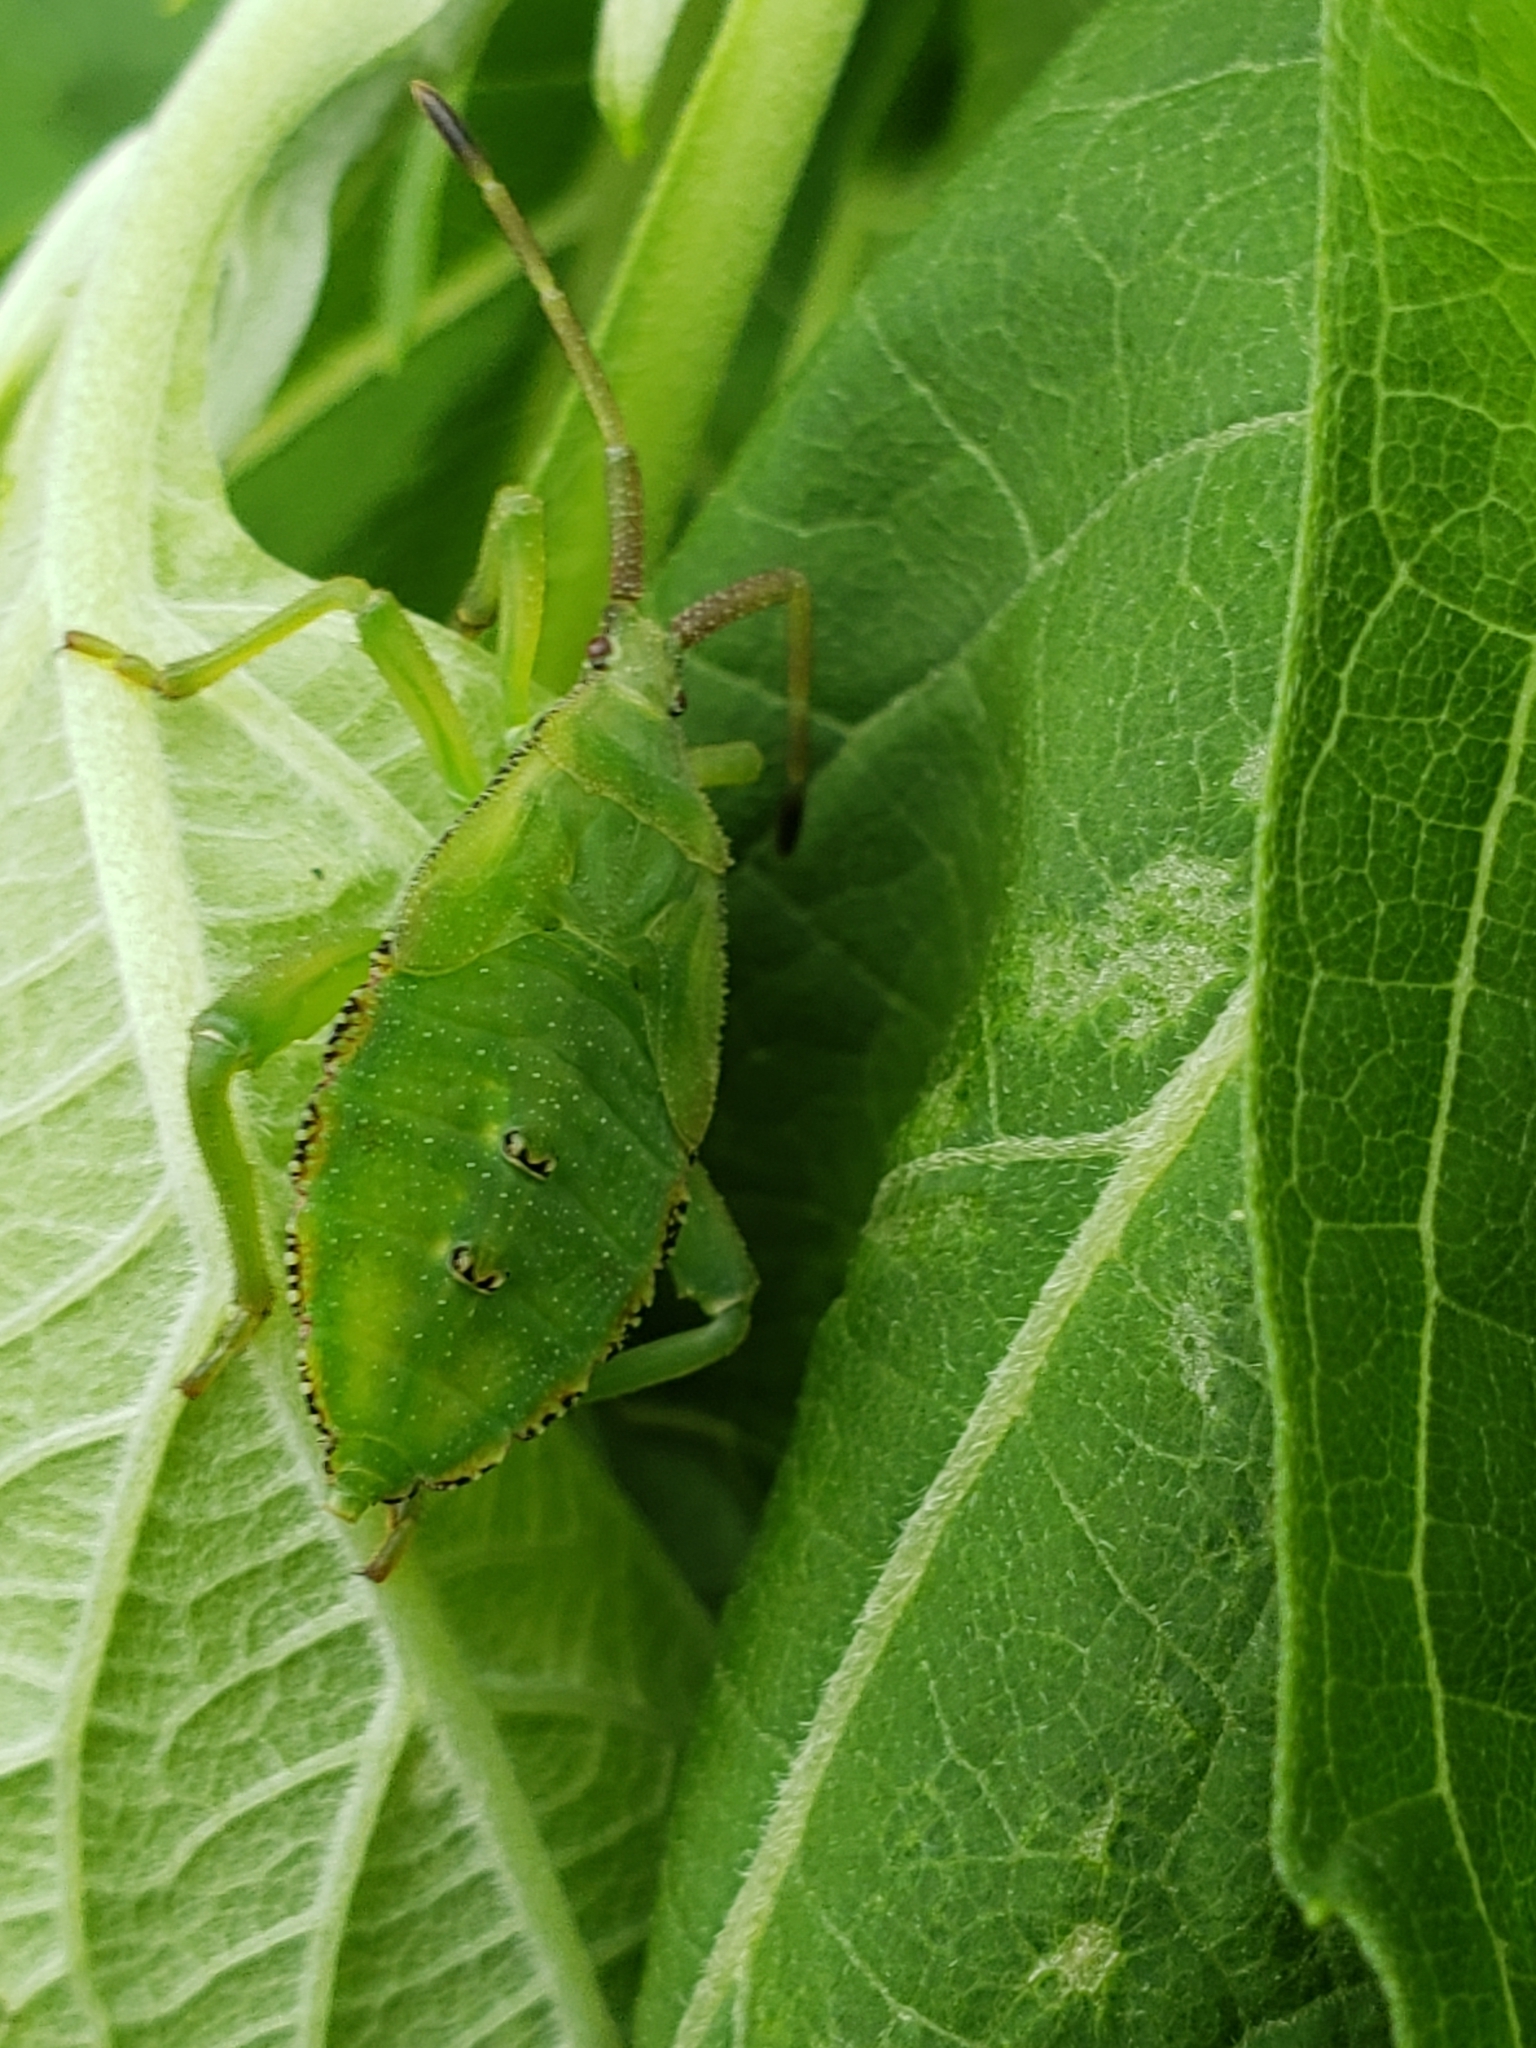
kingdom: Animalia
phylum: Arthropoda
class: Insecta
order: Hemiptera
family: Coreidae
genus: Piezogaster
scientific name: Piezogaster calcarator
